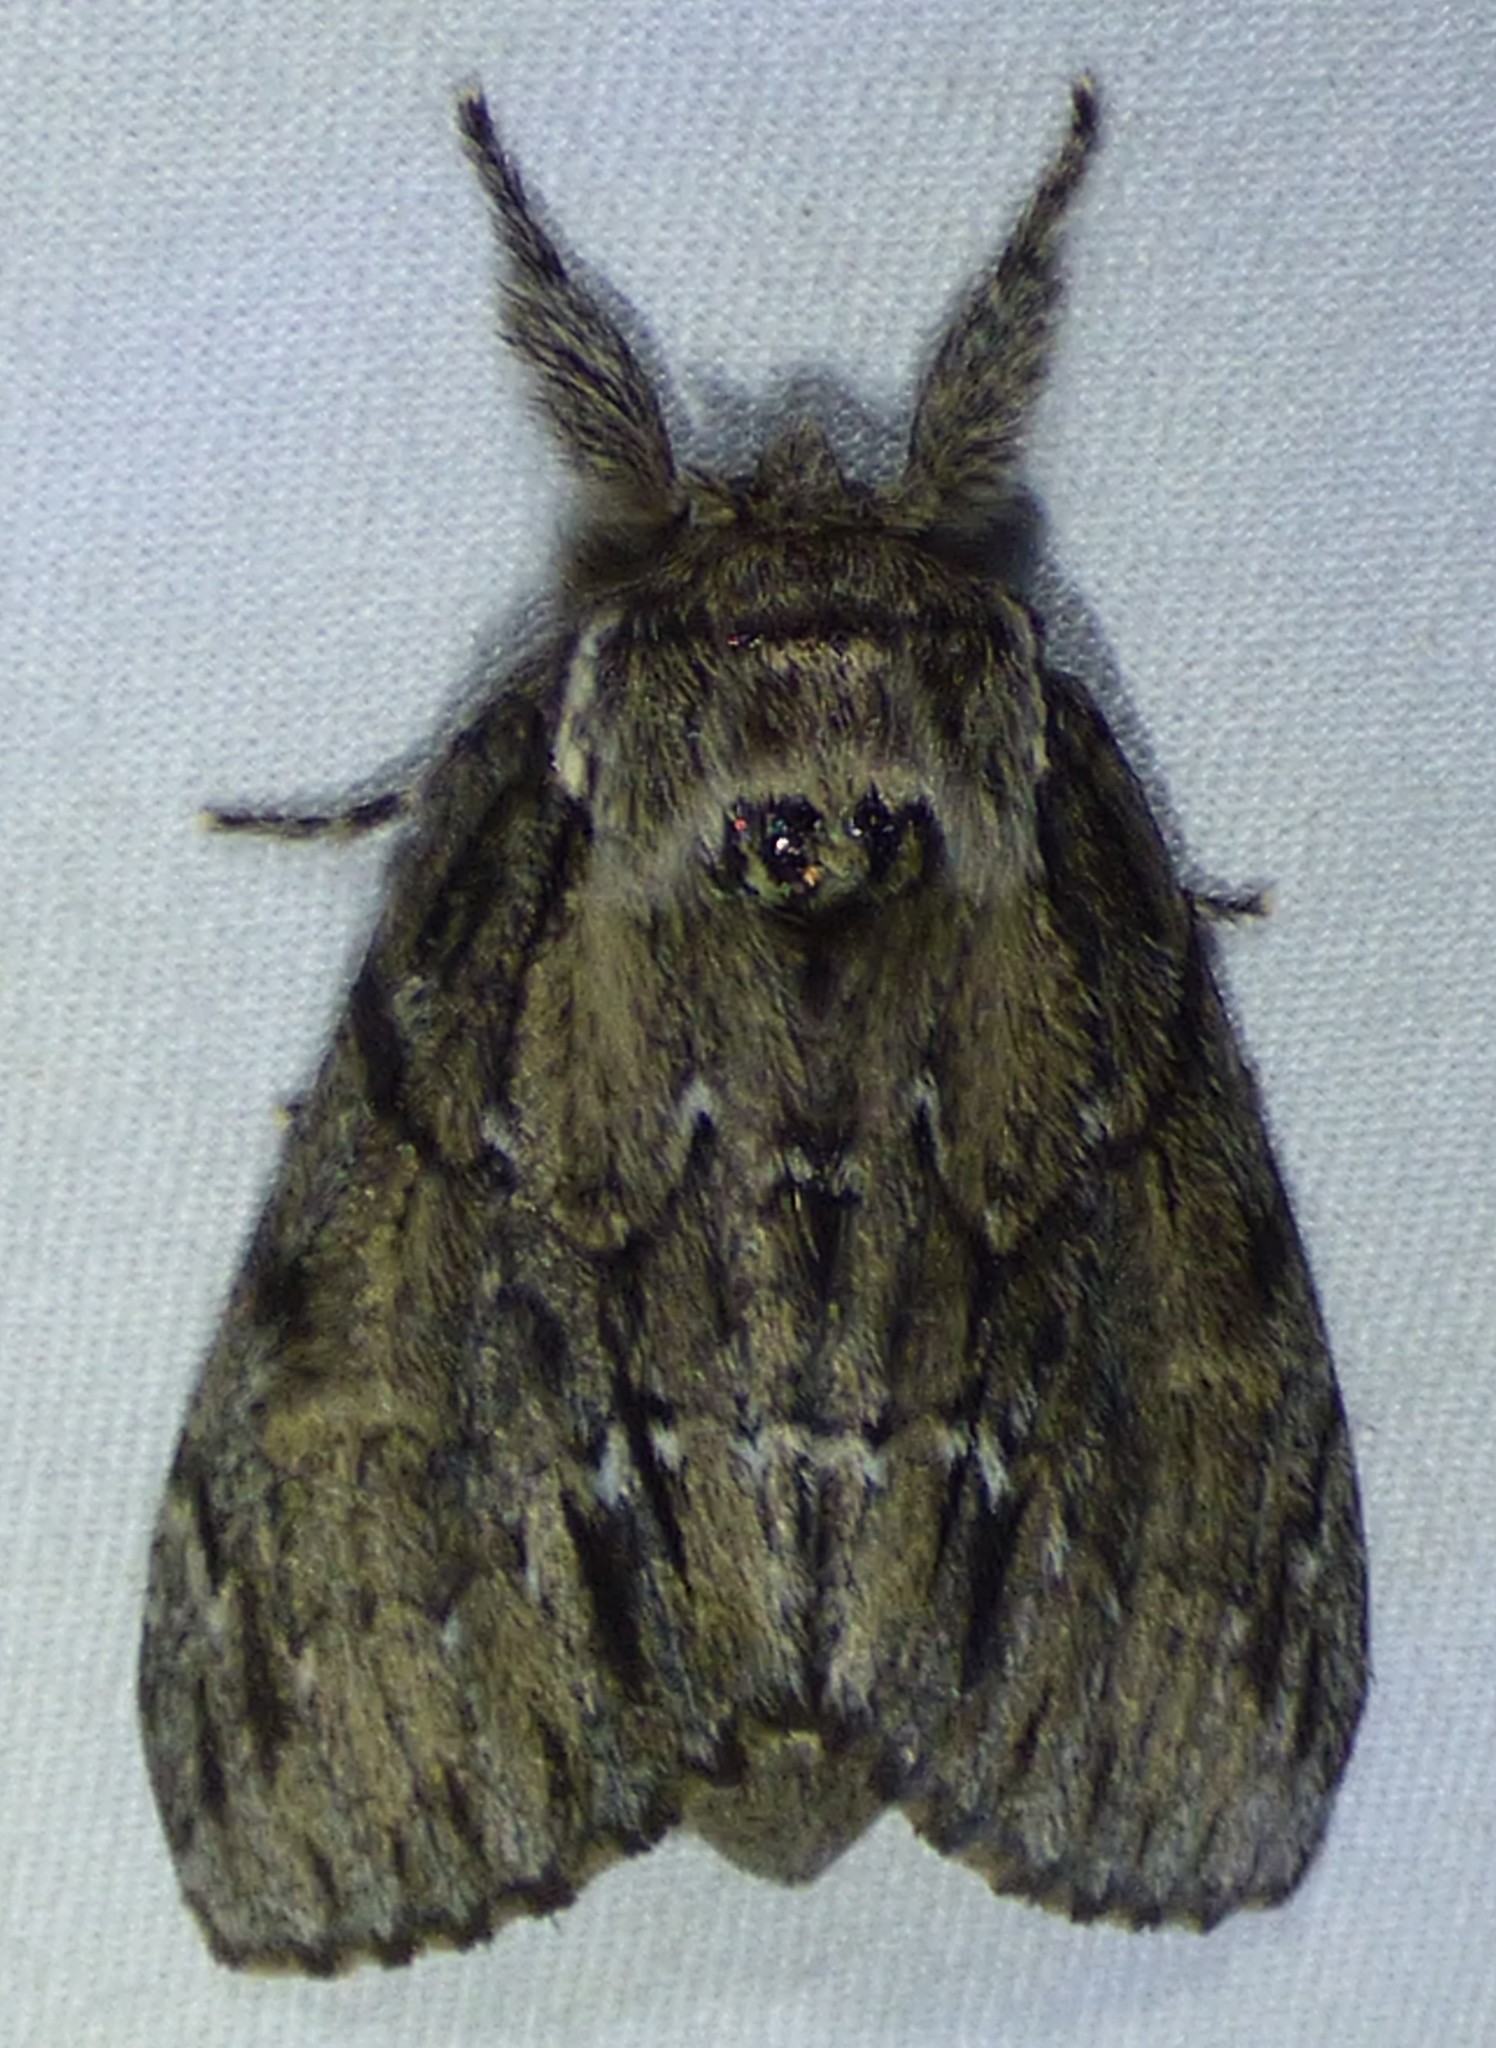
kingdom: Animalia
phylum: Arthropoda
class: Insecta
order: Lepidoptera
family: Notodontidae
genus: Paraeschra
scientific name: Paraeschra georgica
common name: Georgian prominent
